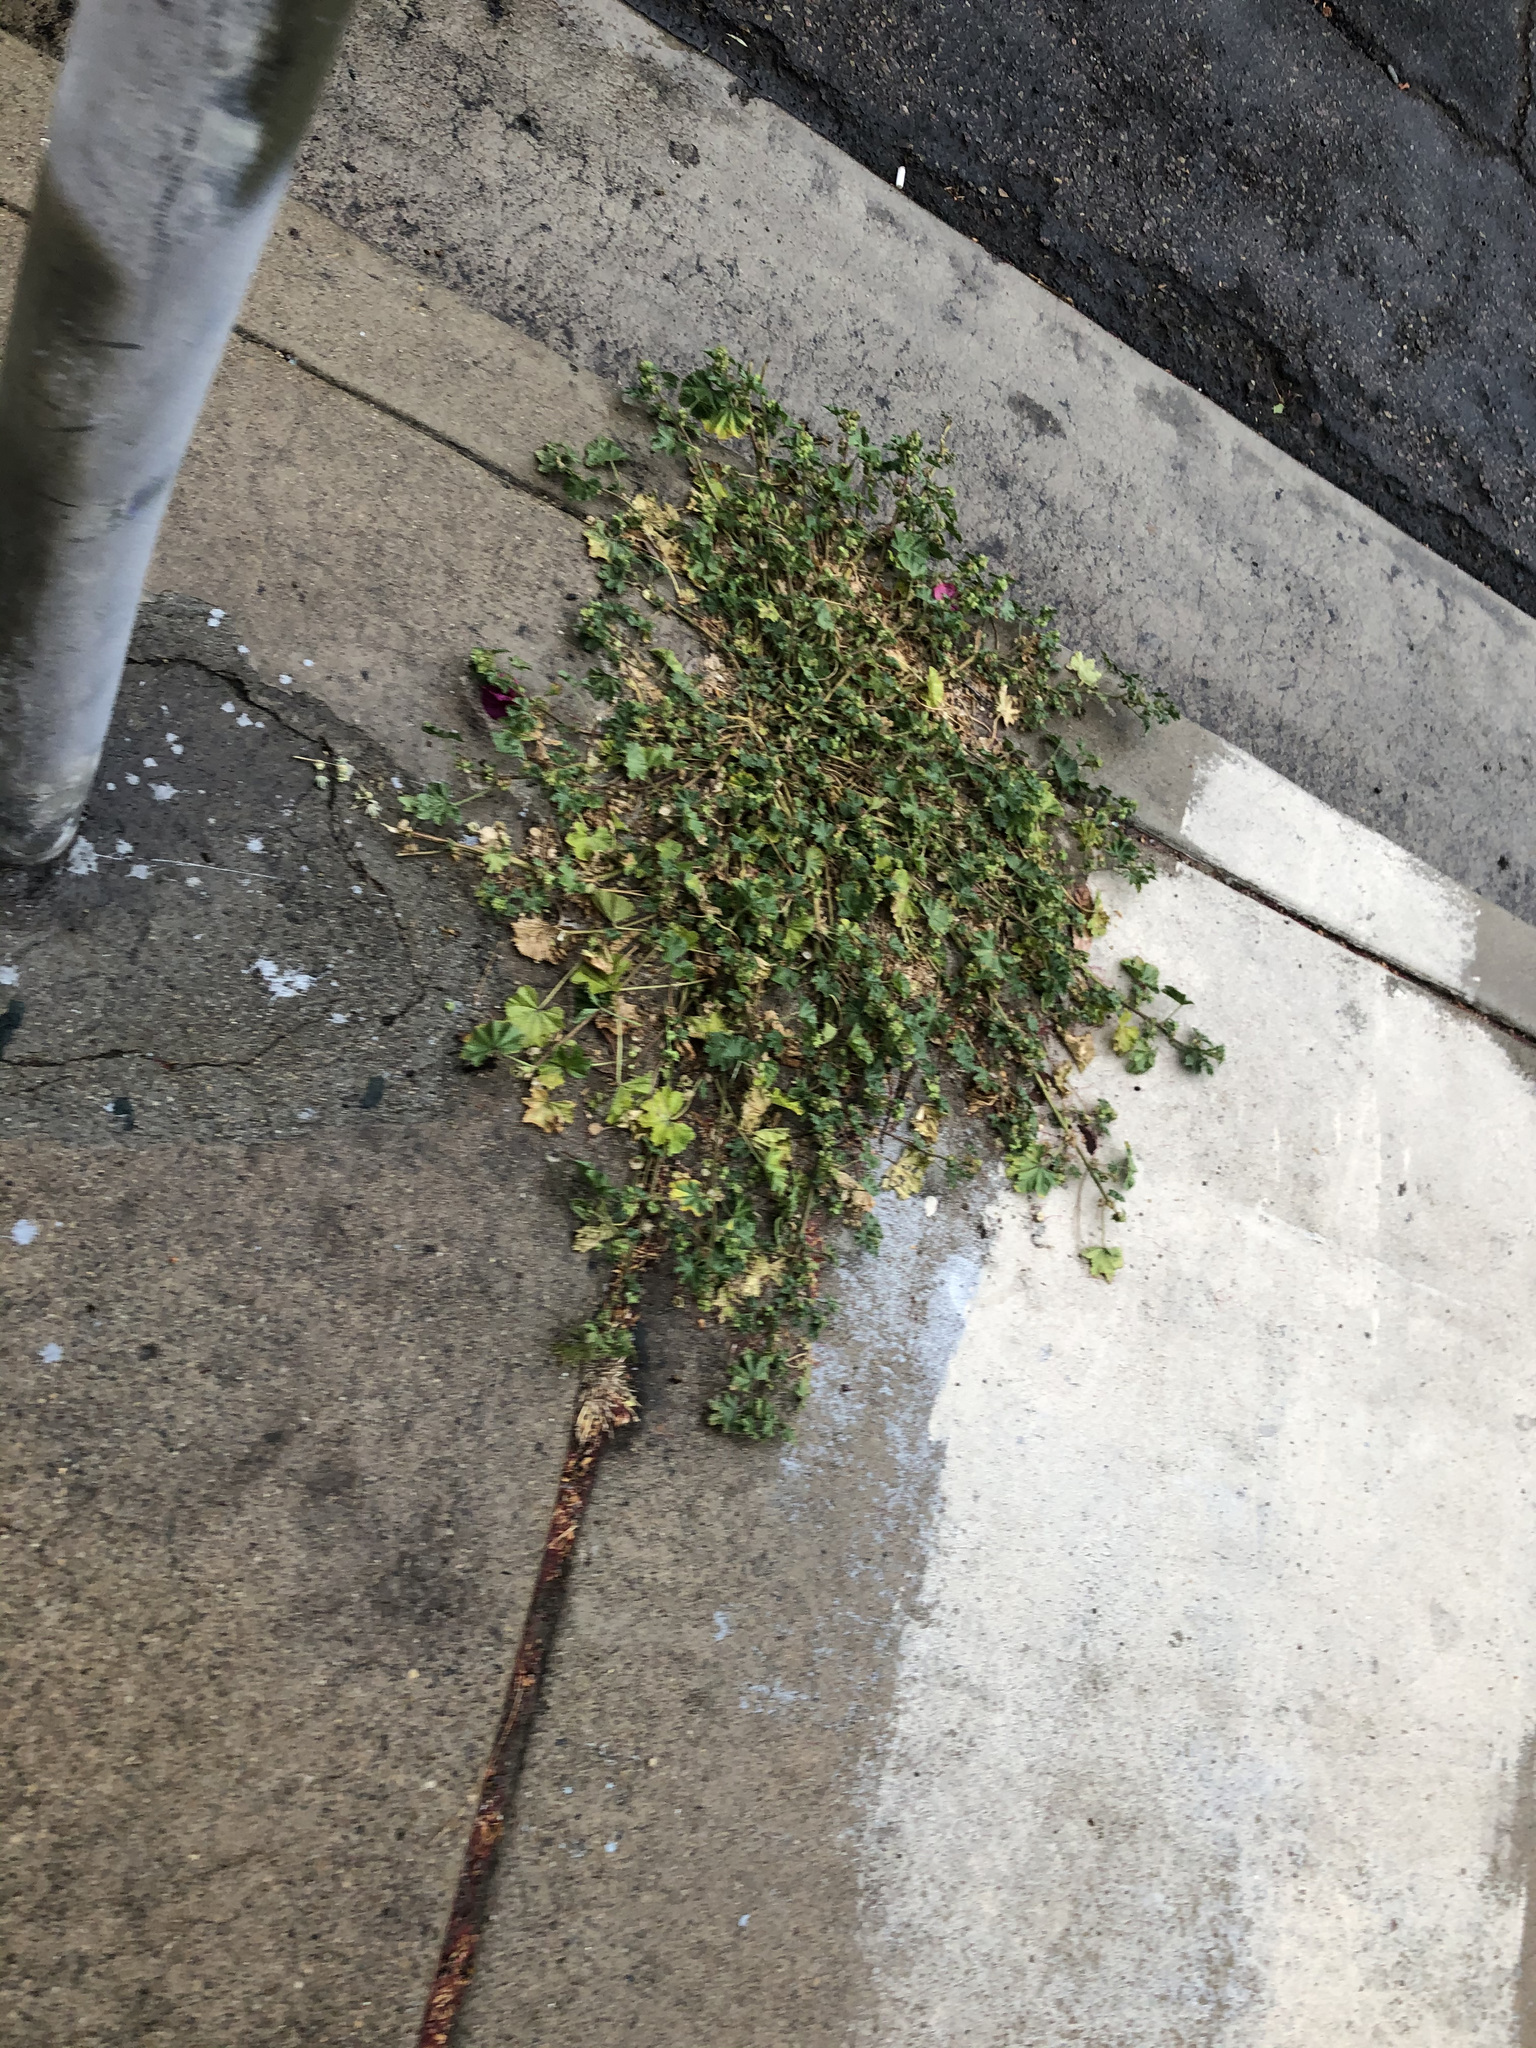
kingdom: Plantae
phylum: Tracheophyta
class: Magnoliopsida
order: Malvales
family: Malvaceae
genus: Malva
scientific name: Malva parviflora
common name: Least mallow
